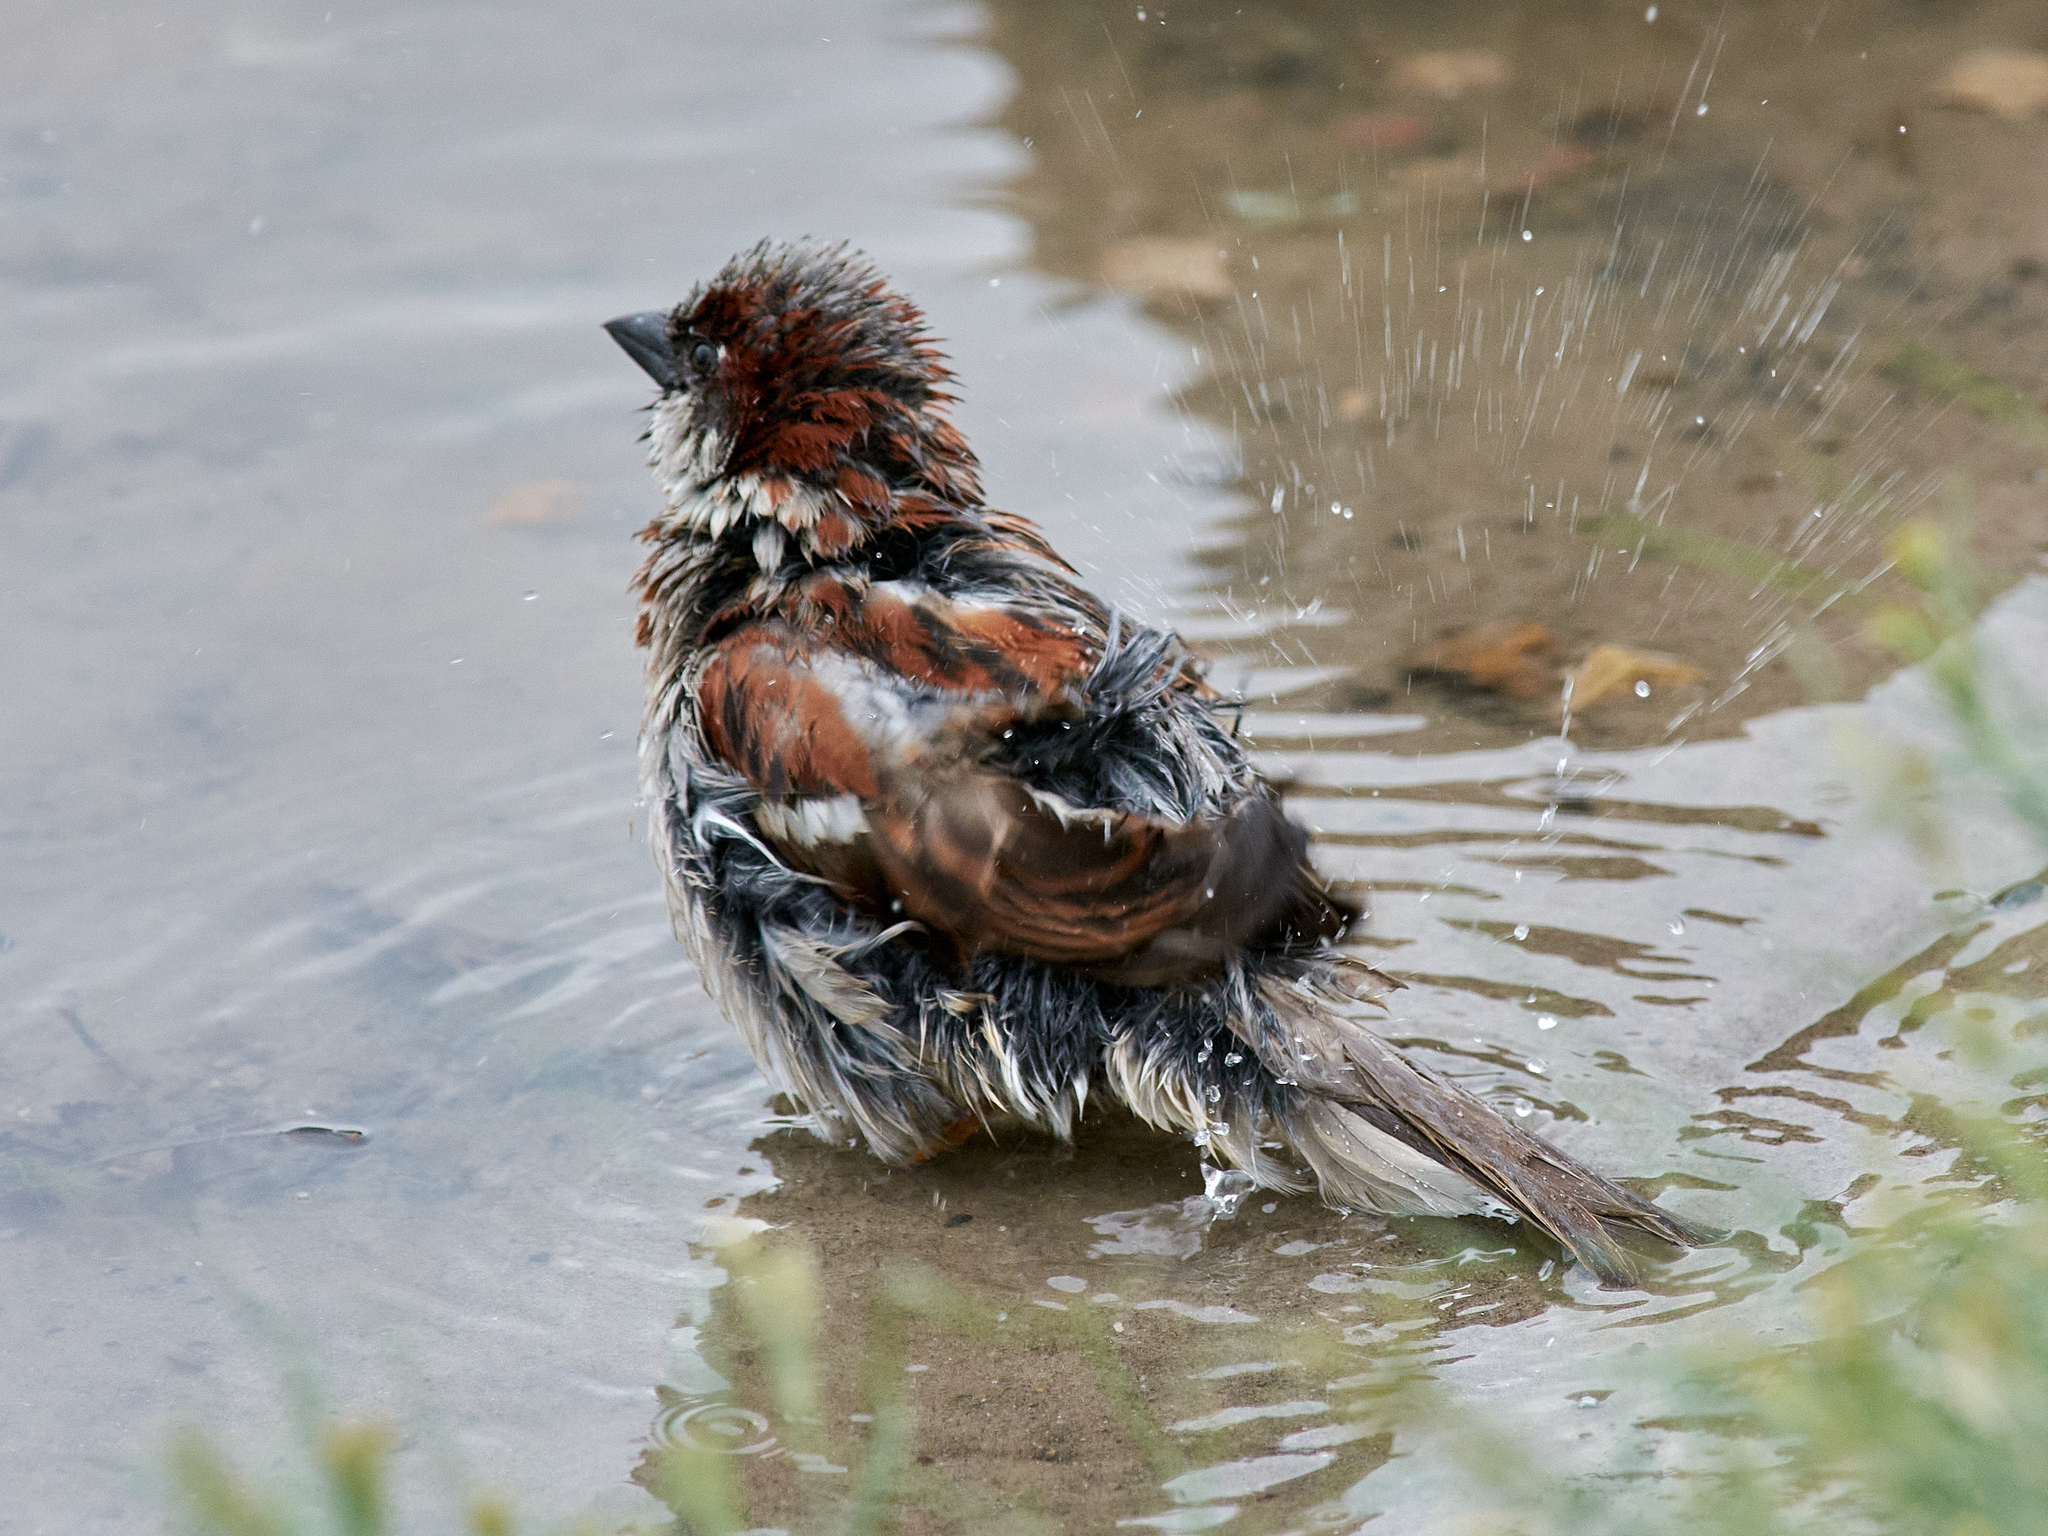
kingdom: Animalia
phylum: Chordata
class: Aves
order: Passeriformes
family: Passeridae
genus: Passer
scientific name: Passer domesticus
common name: House sparrow
